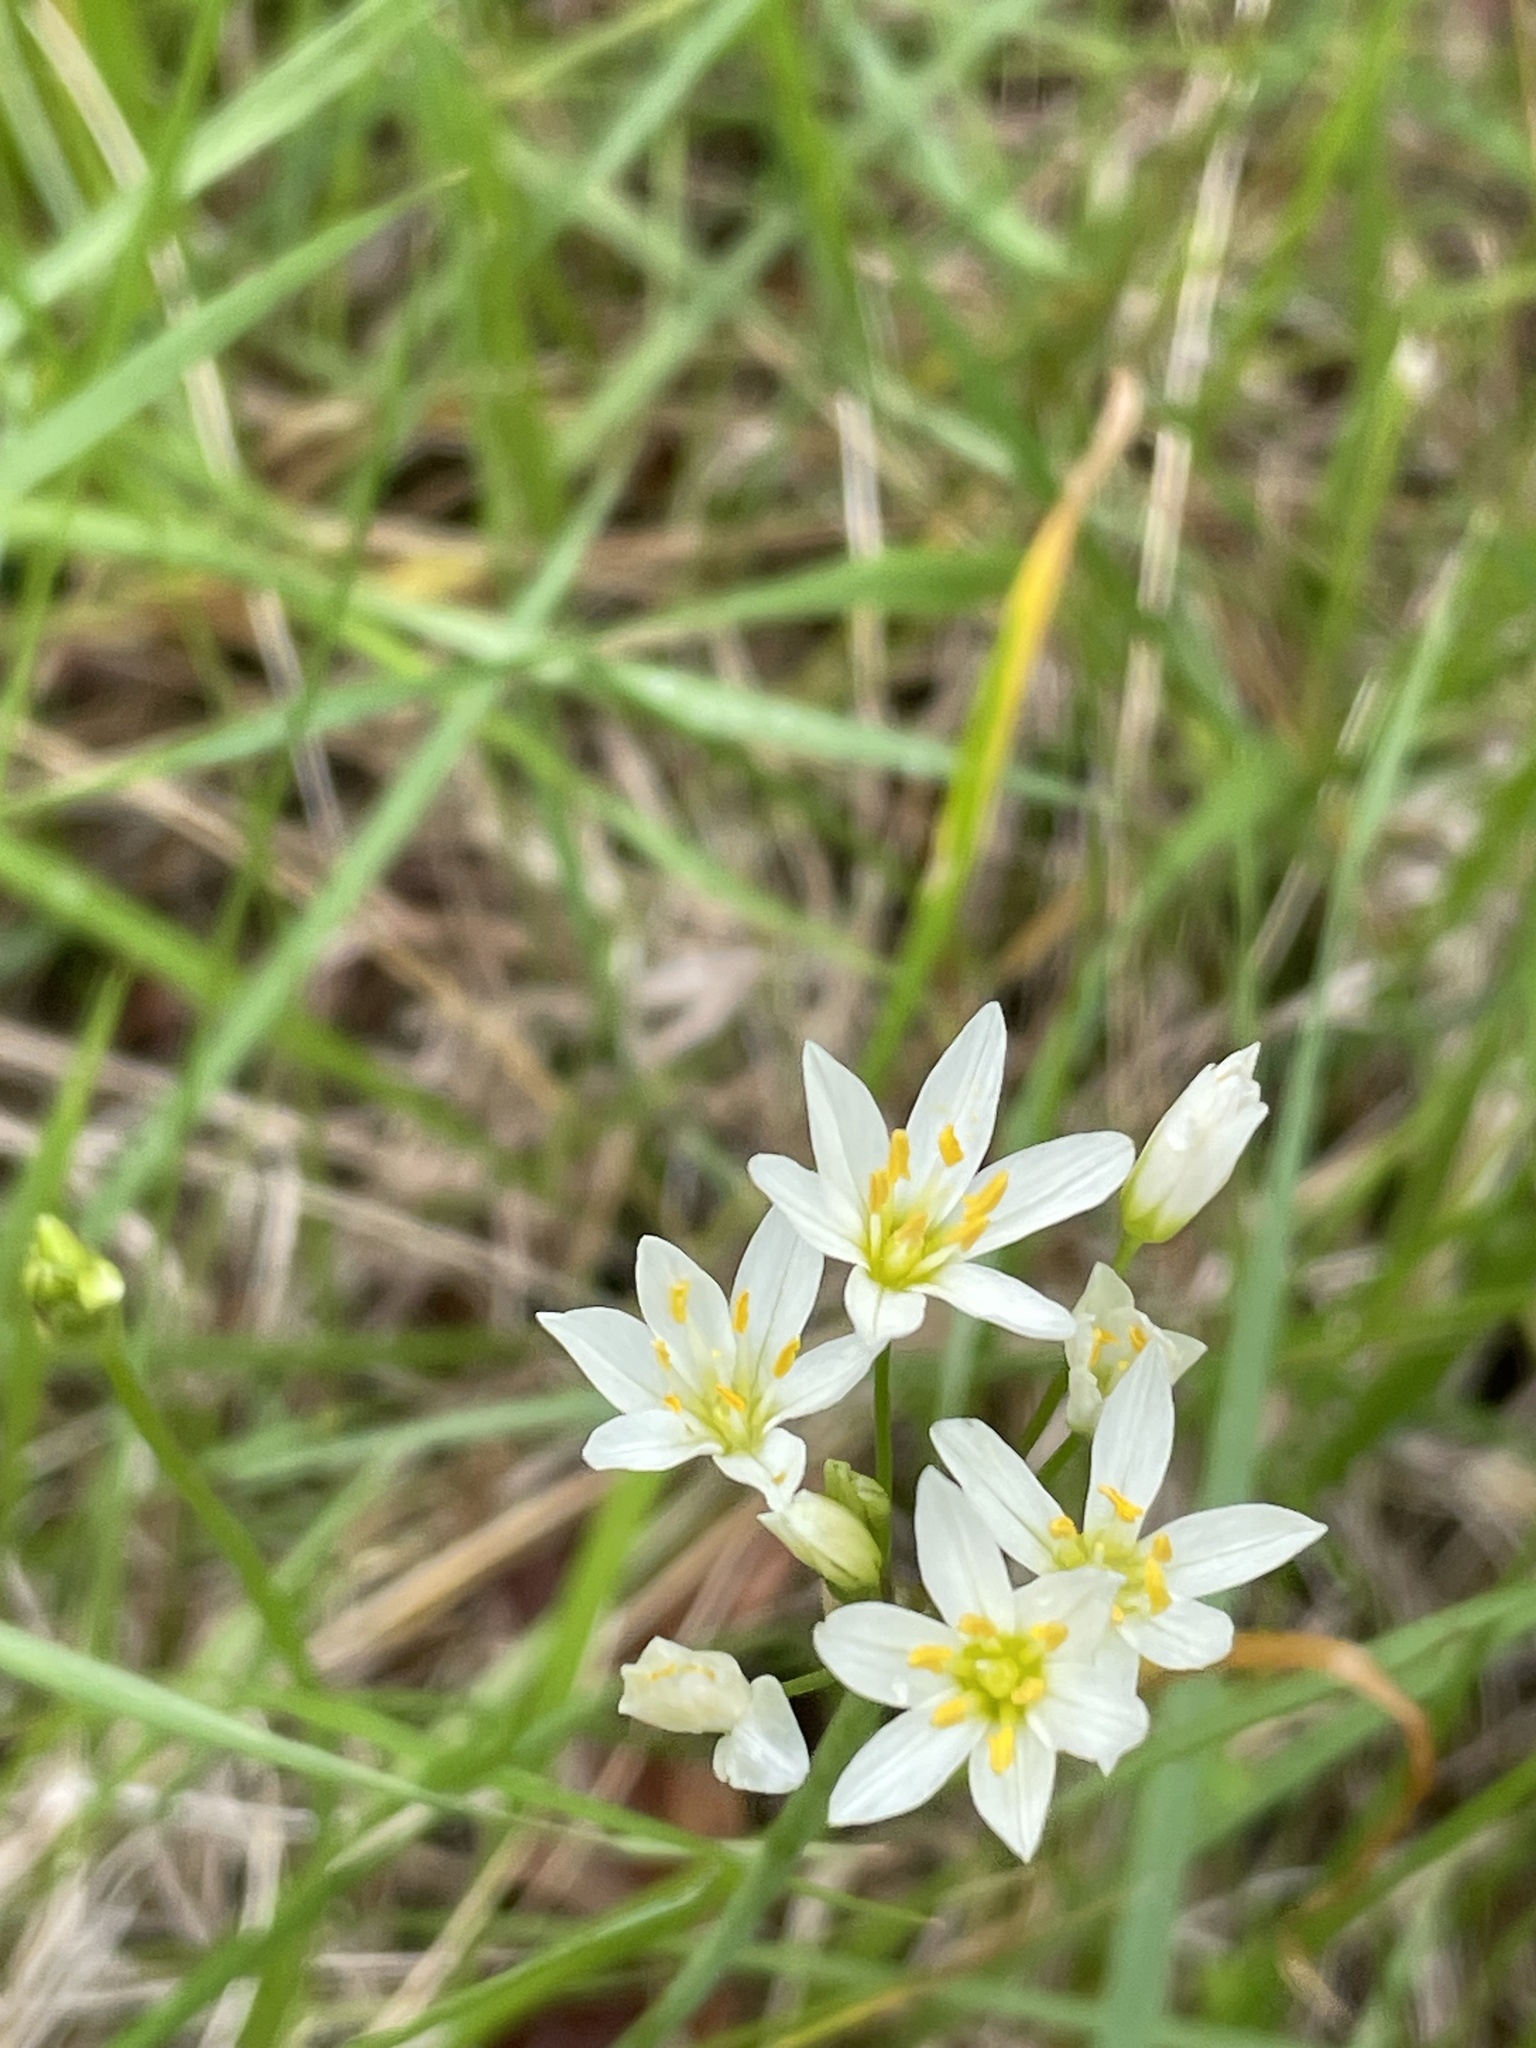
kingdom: Plantae
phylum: Tracheophyta
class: Liliopsida
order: Asparagales
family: Amaryllidaceae
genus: Nothoscordum
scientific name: Nothoscordum bivalve
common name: Crow-poison
